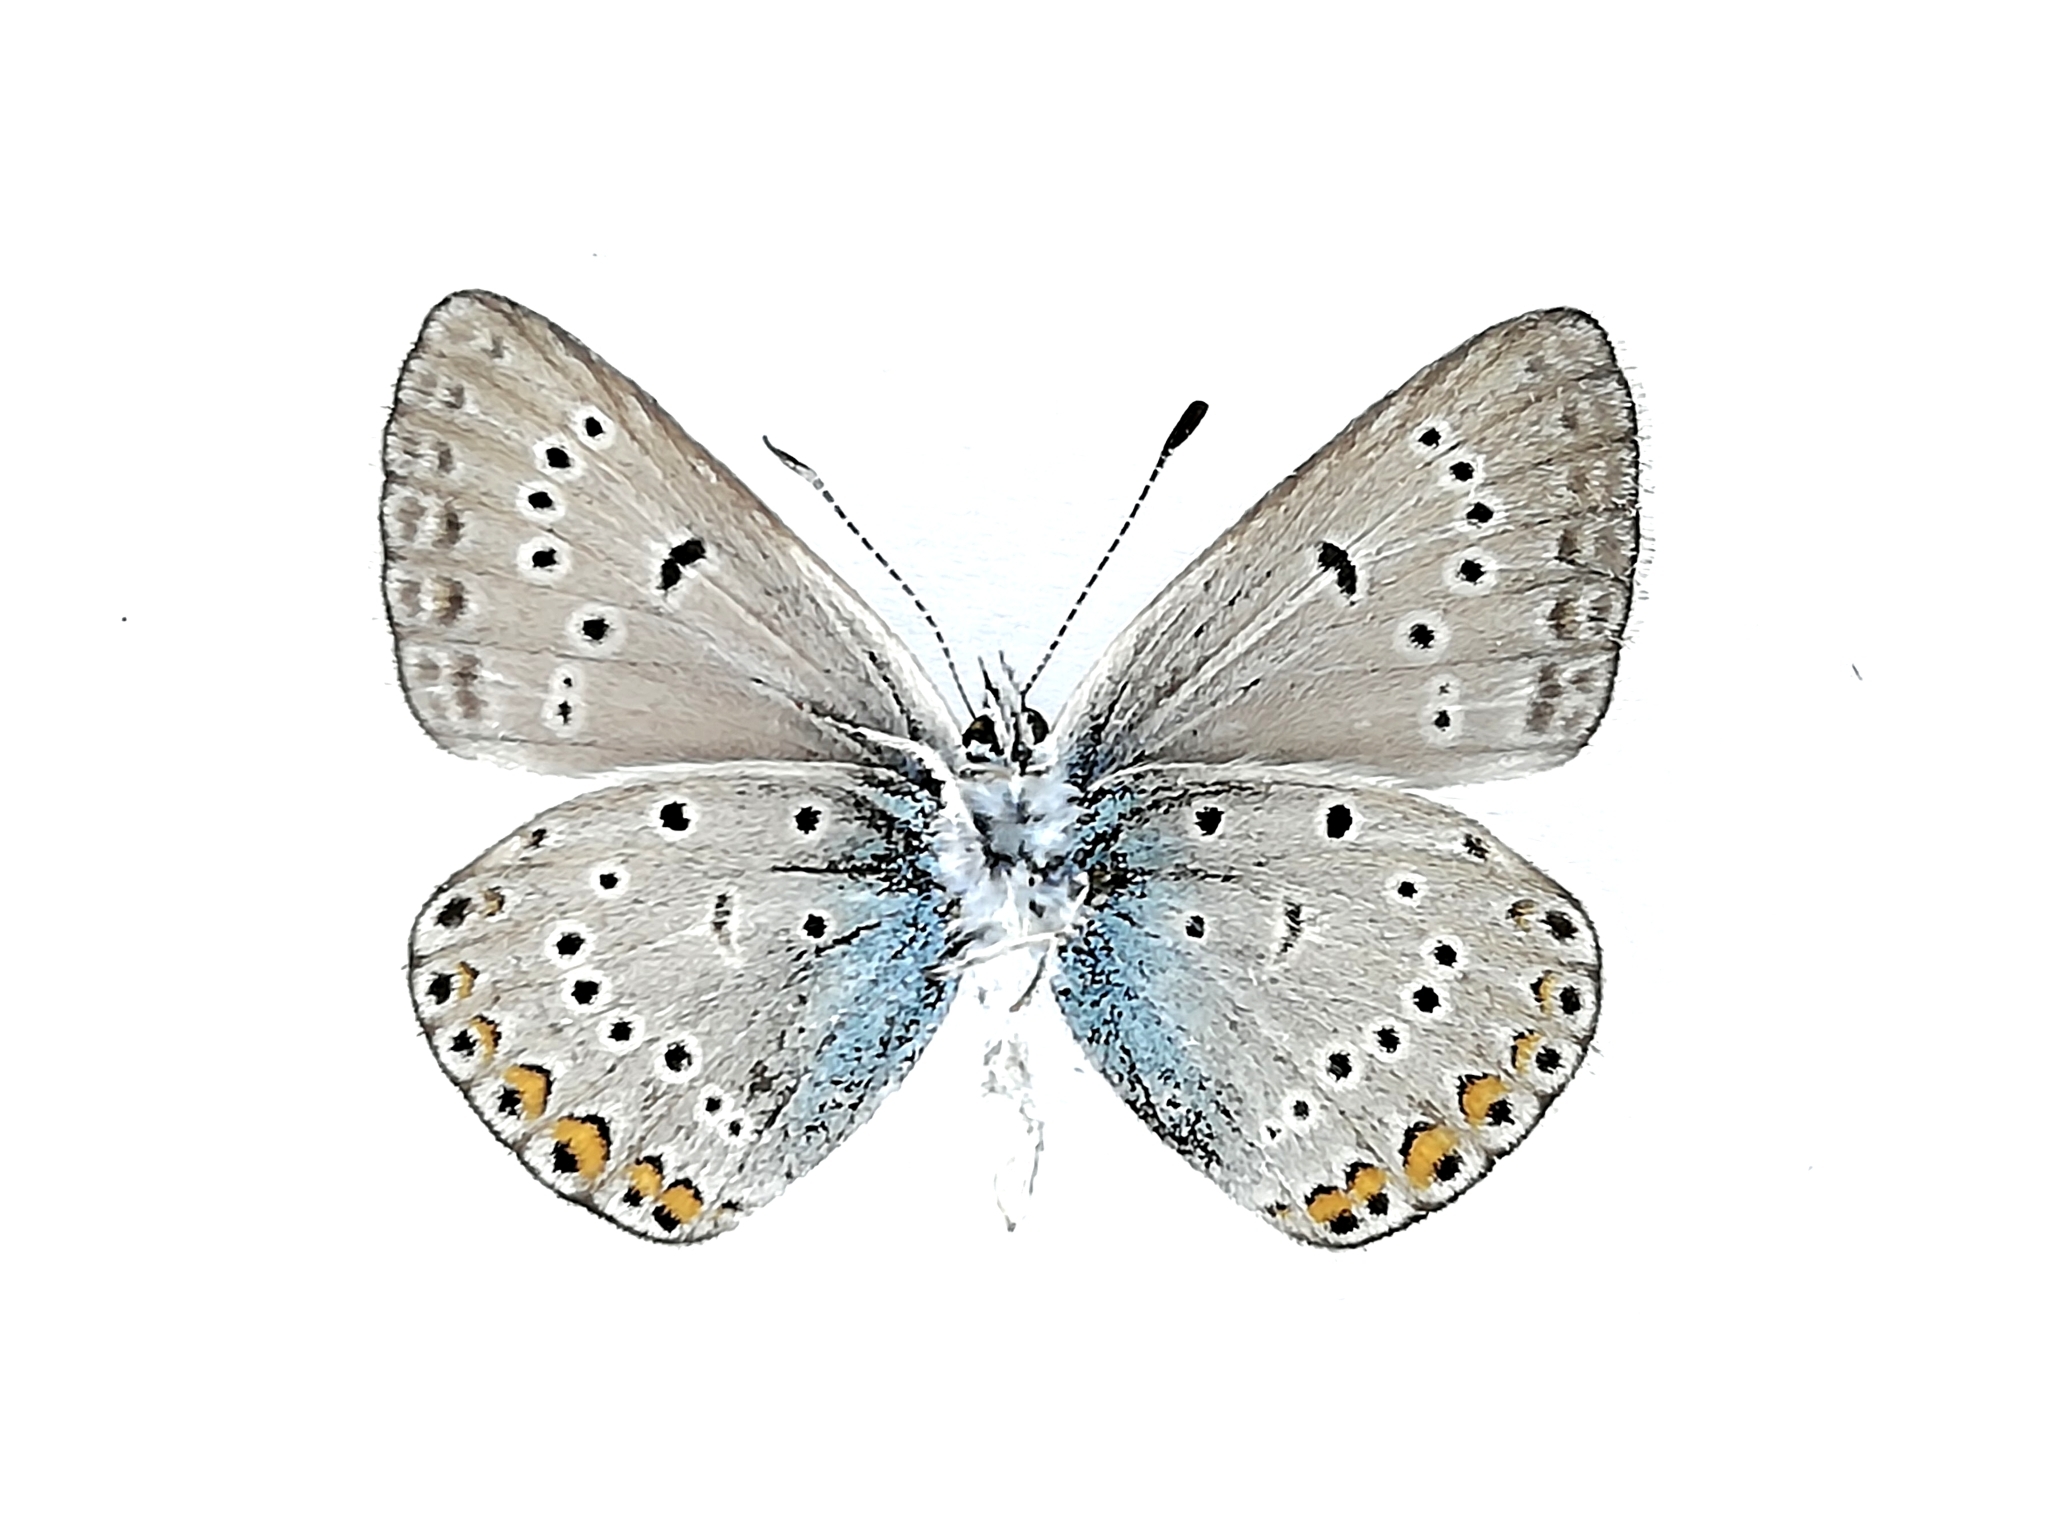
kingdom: Animalia
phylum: Arthropoda
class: Insecta
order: Lepidoptera
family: Lycaenidae
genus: Plebejus
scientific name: Plebejus amanda
